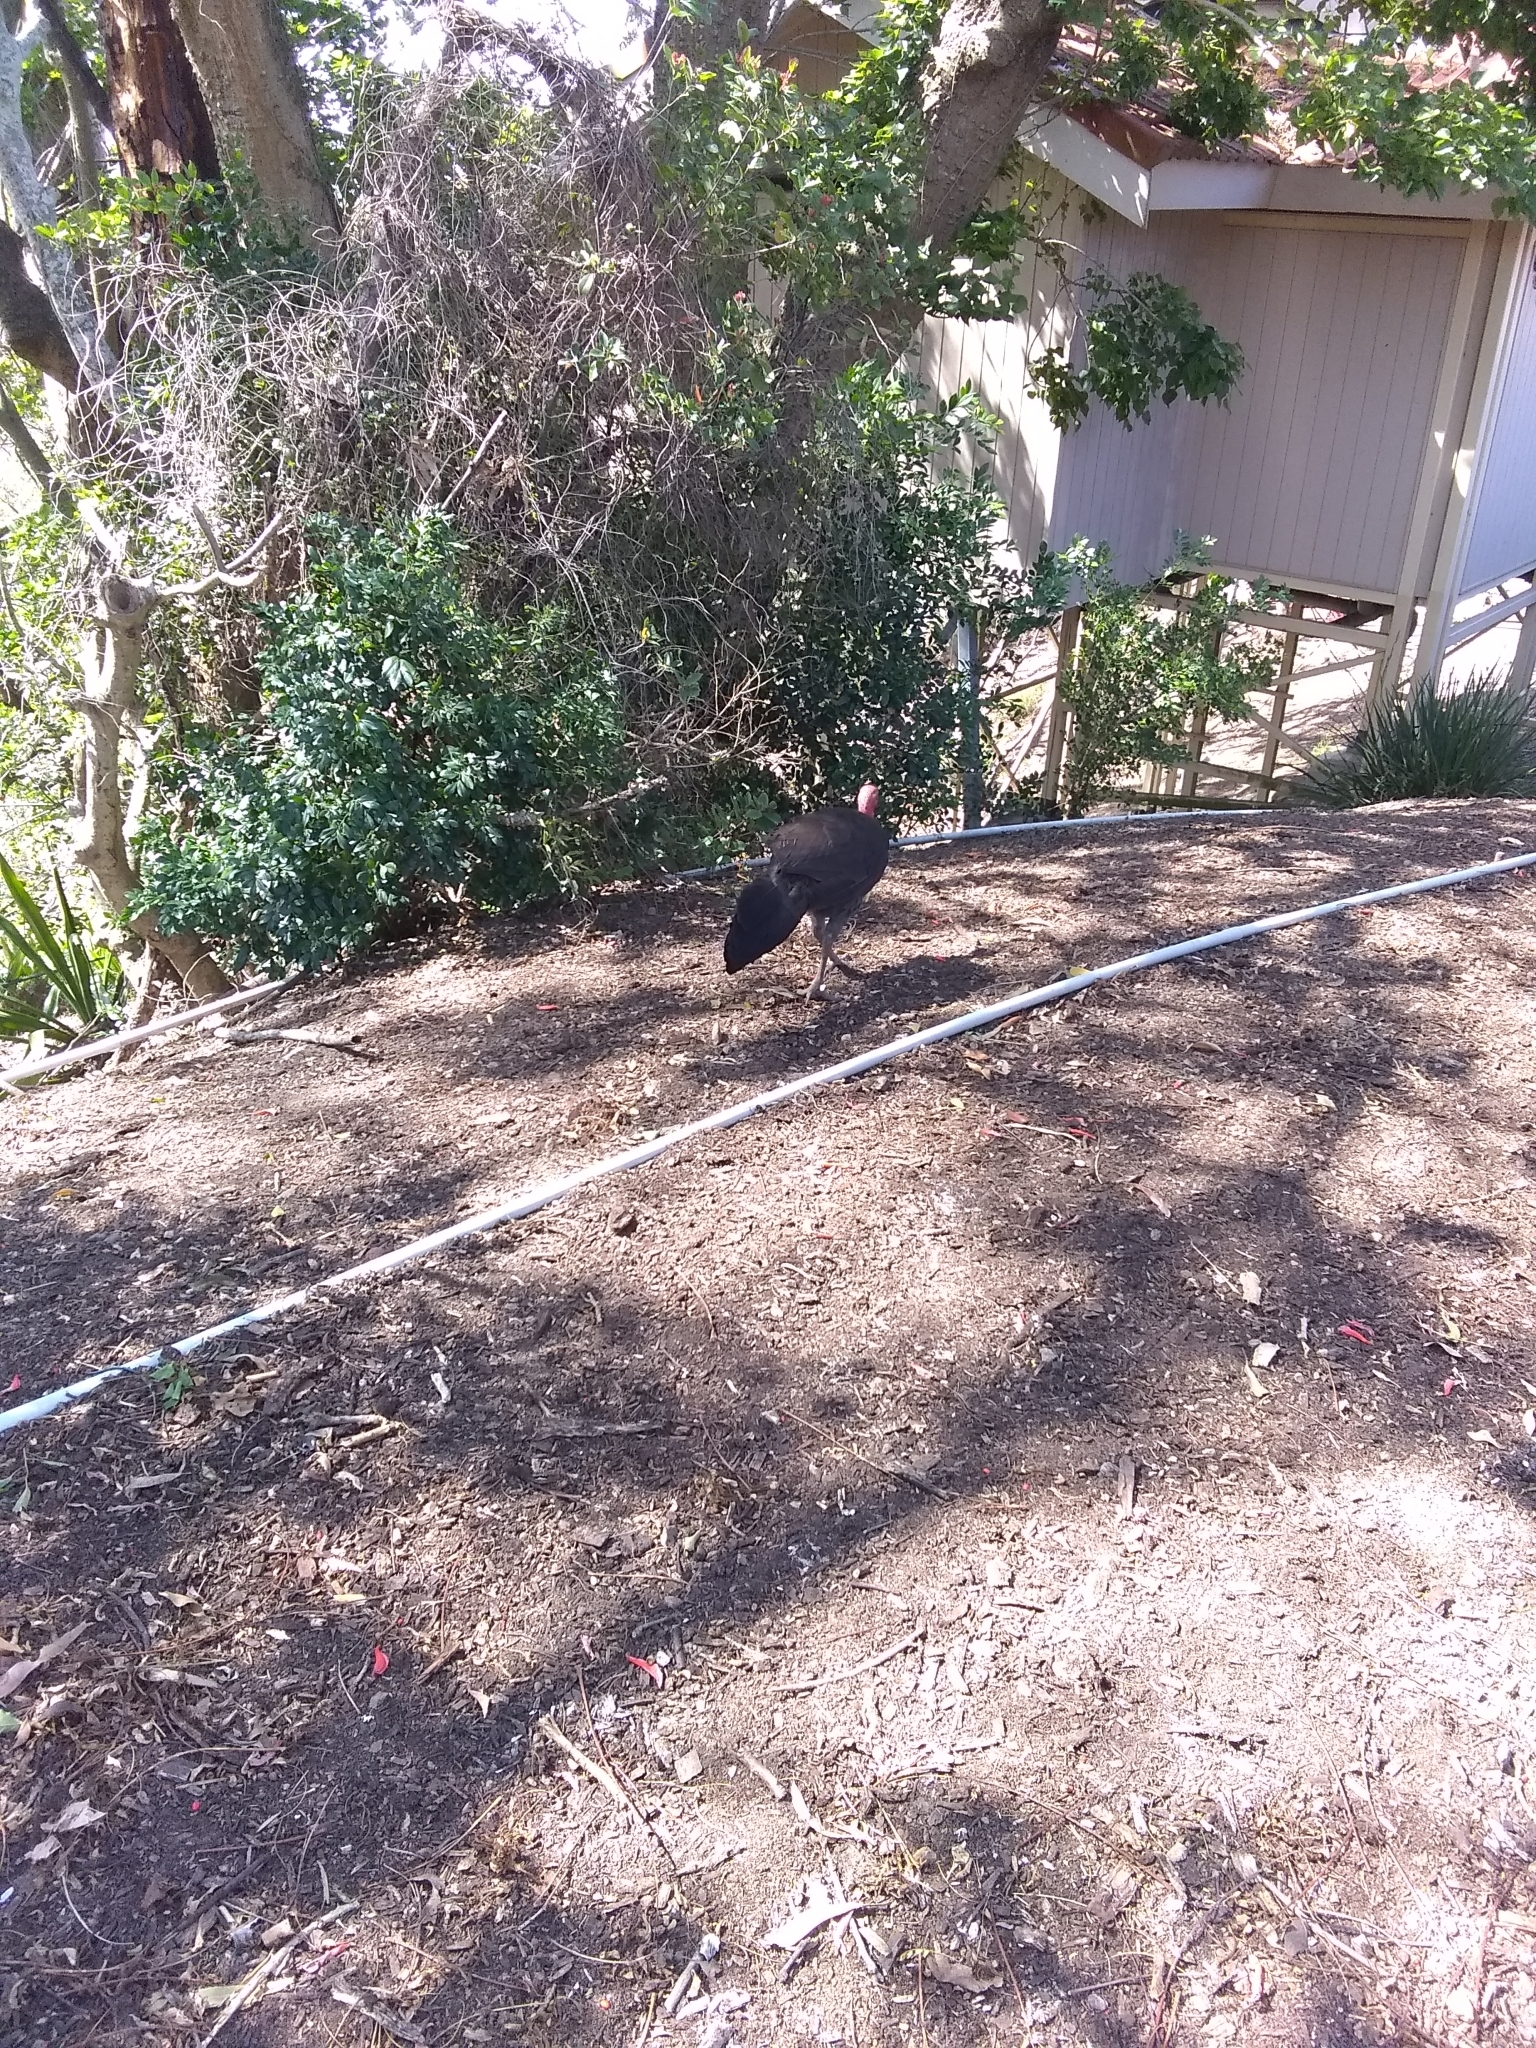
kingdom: Animalia
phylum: Chordata
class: Aves
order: Galliformes
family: Megapodiidae
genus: Alectura
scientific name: Alectura lathami
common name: Australian brushturkey
